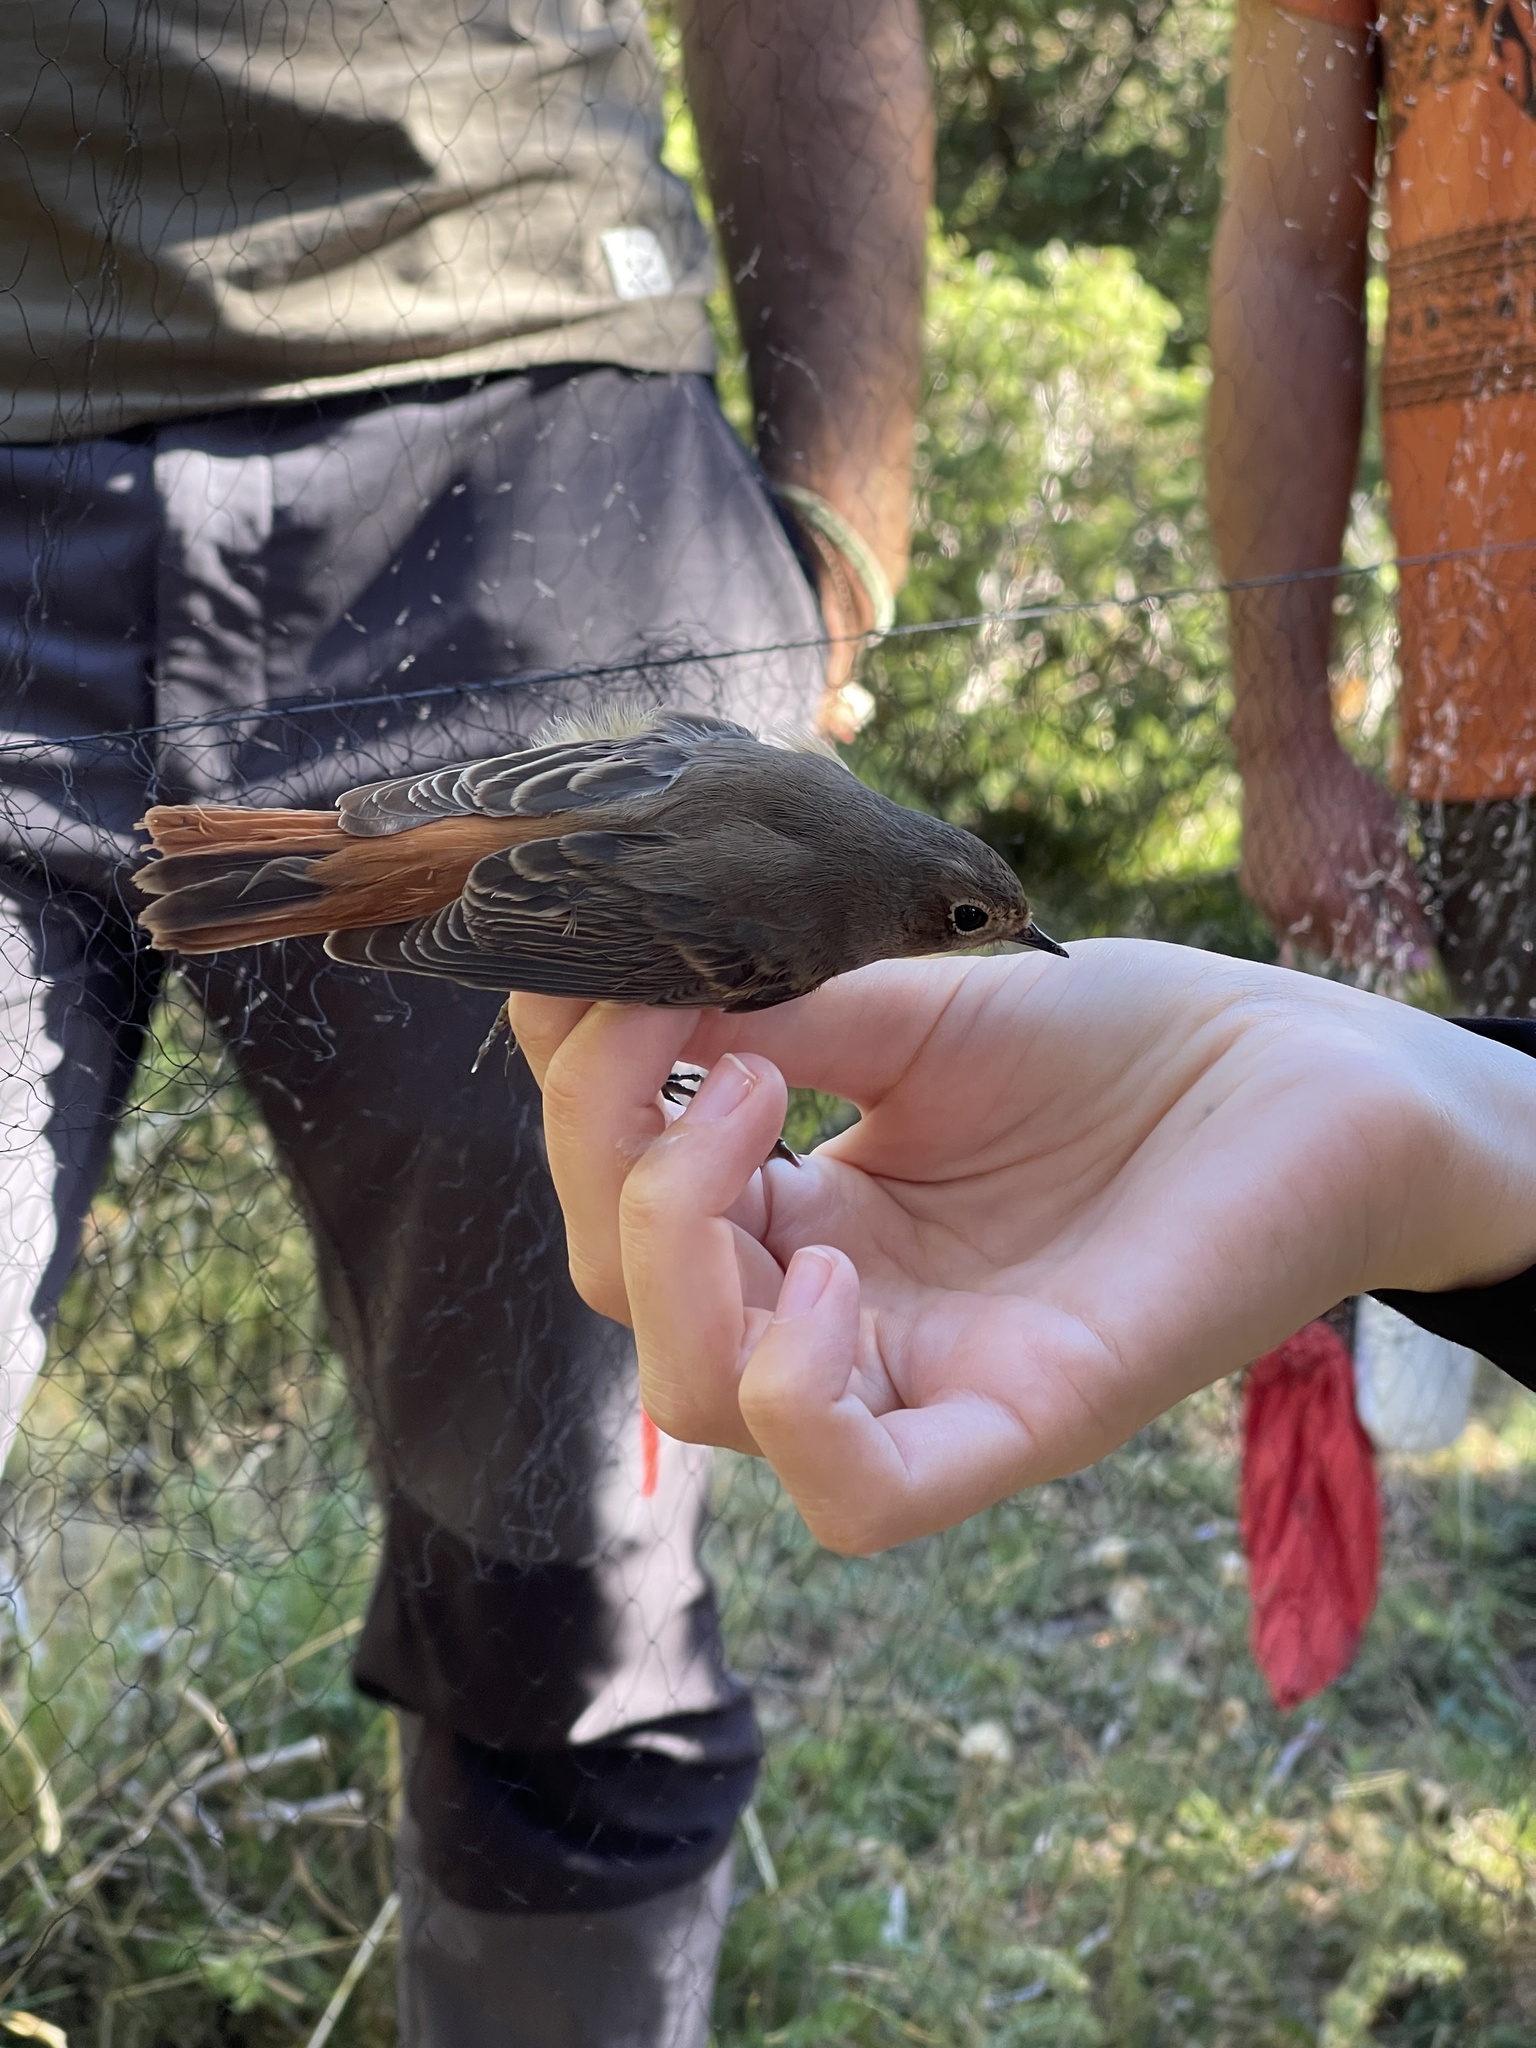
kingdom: Animalia
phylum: Chordata
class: Aves
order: Passeriformes
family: Muscicapidae
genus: Phoenicurus
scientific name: Phoenicurus phoenicurus
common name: Common redstart
